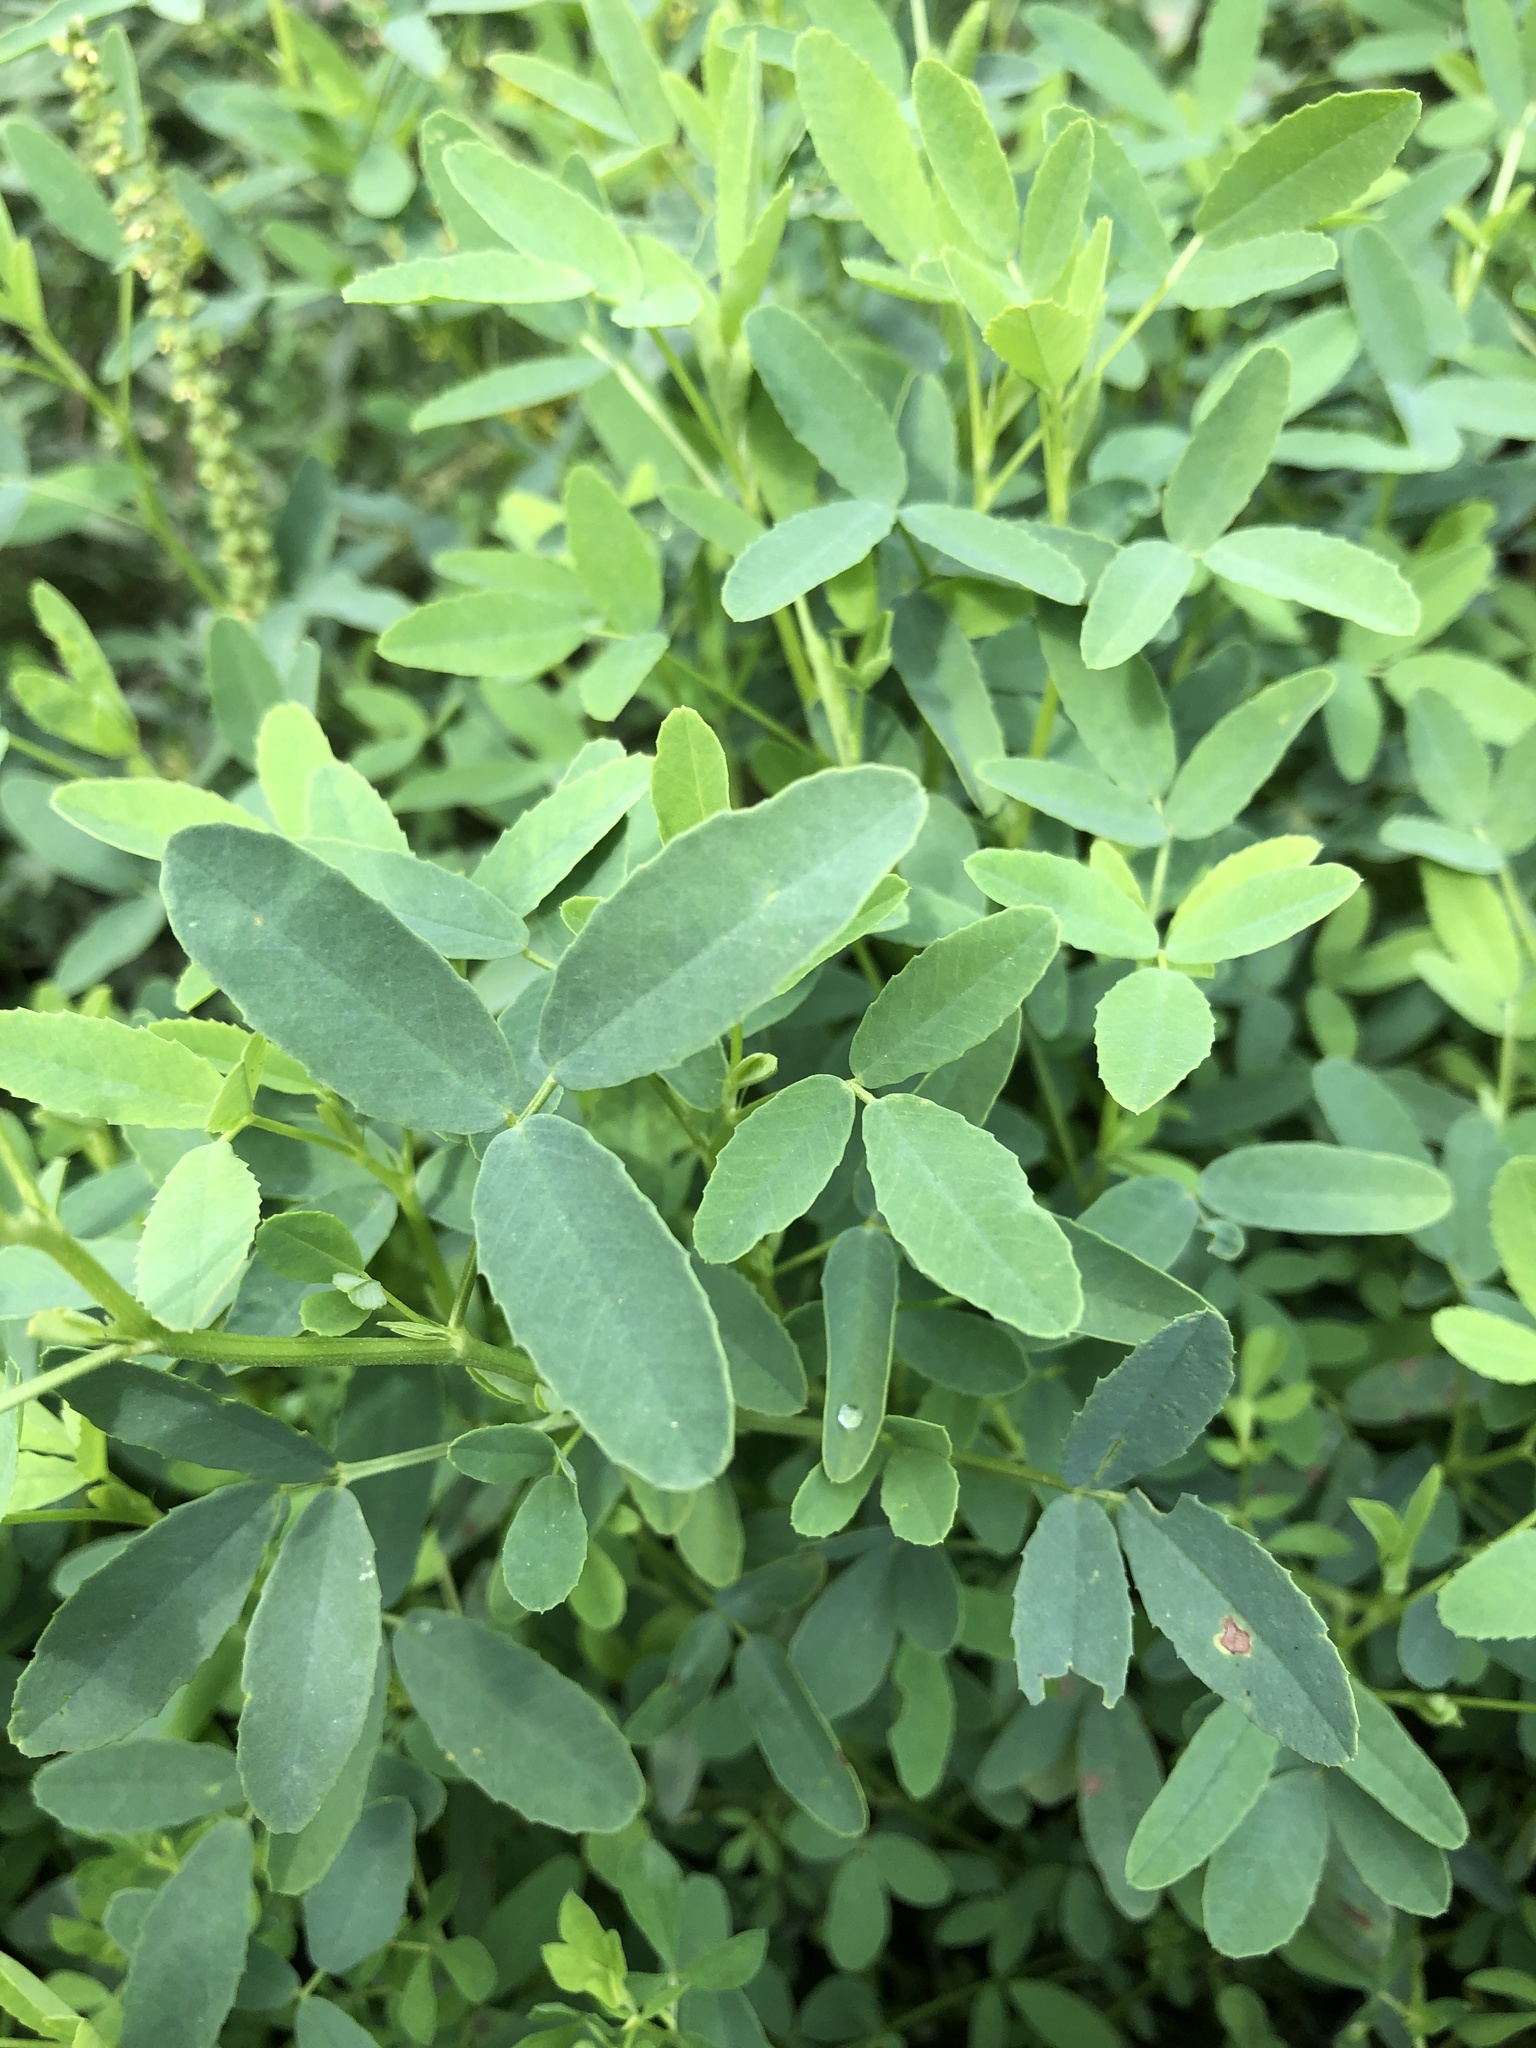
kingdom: Plantae
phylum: Tracheophyta
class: Magnoliopsida
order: Fabales
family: Fabaceae
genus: Melilotus
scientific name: Melilotus albus
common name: White melilot
